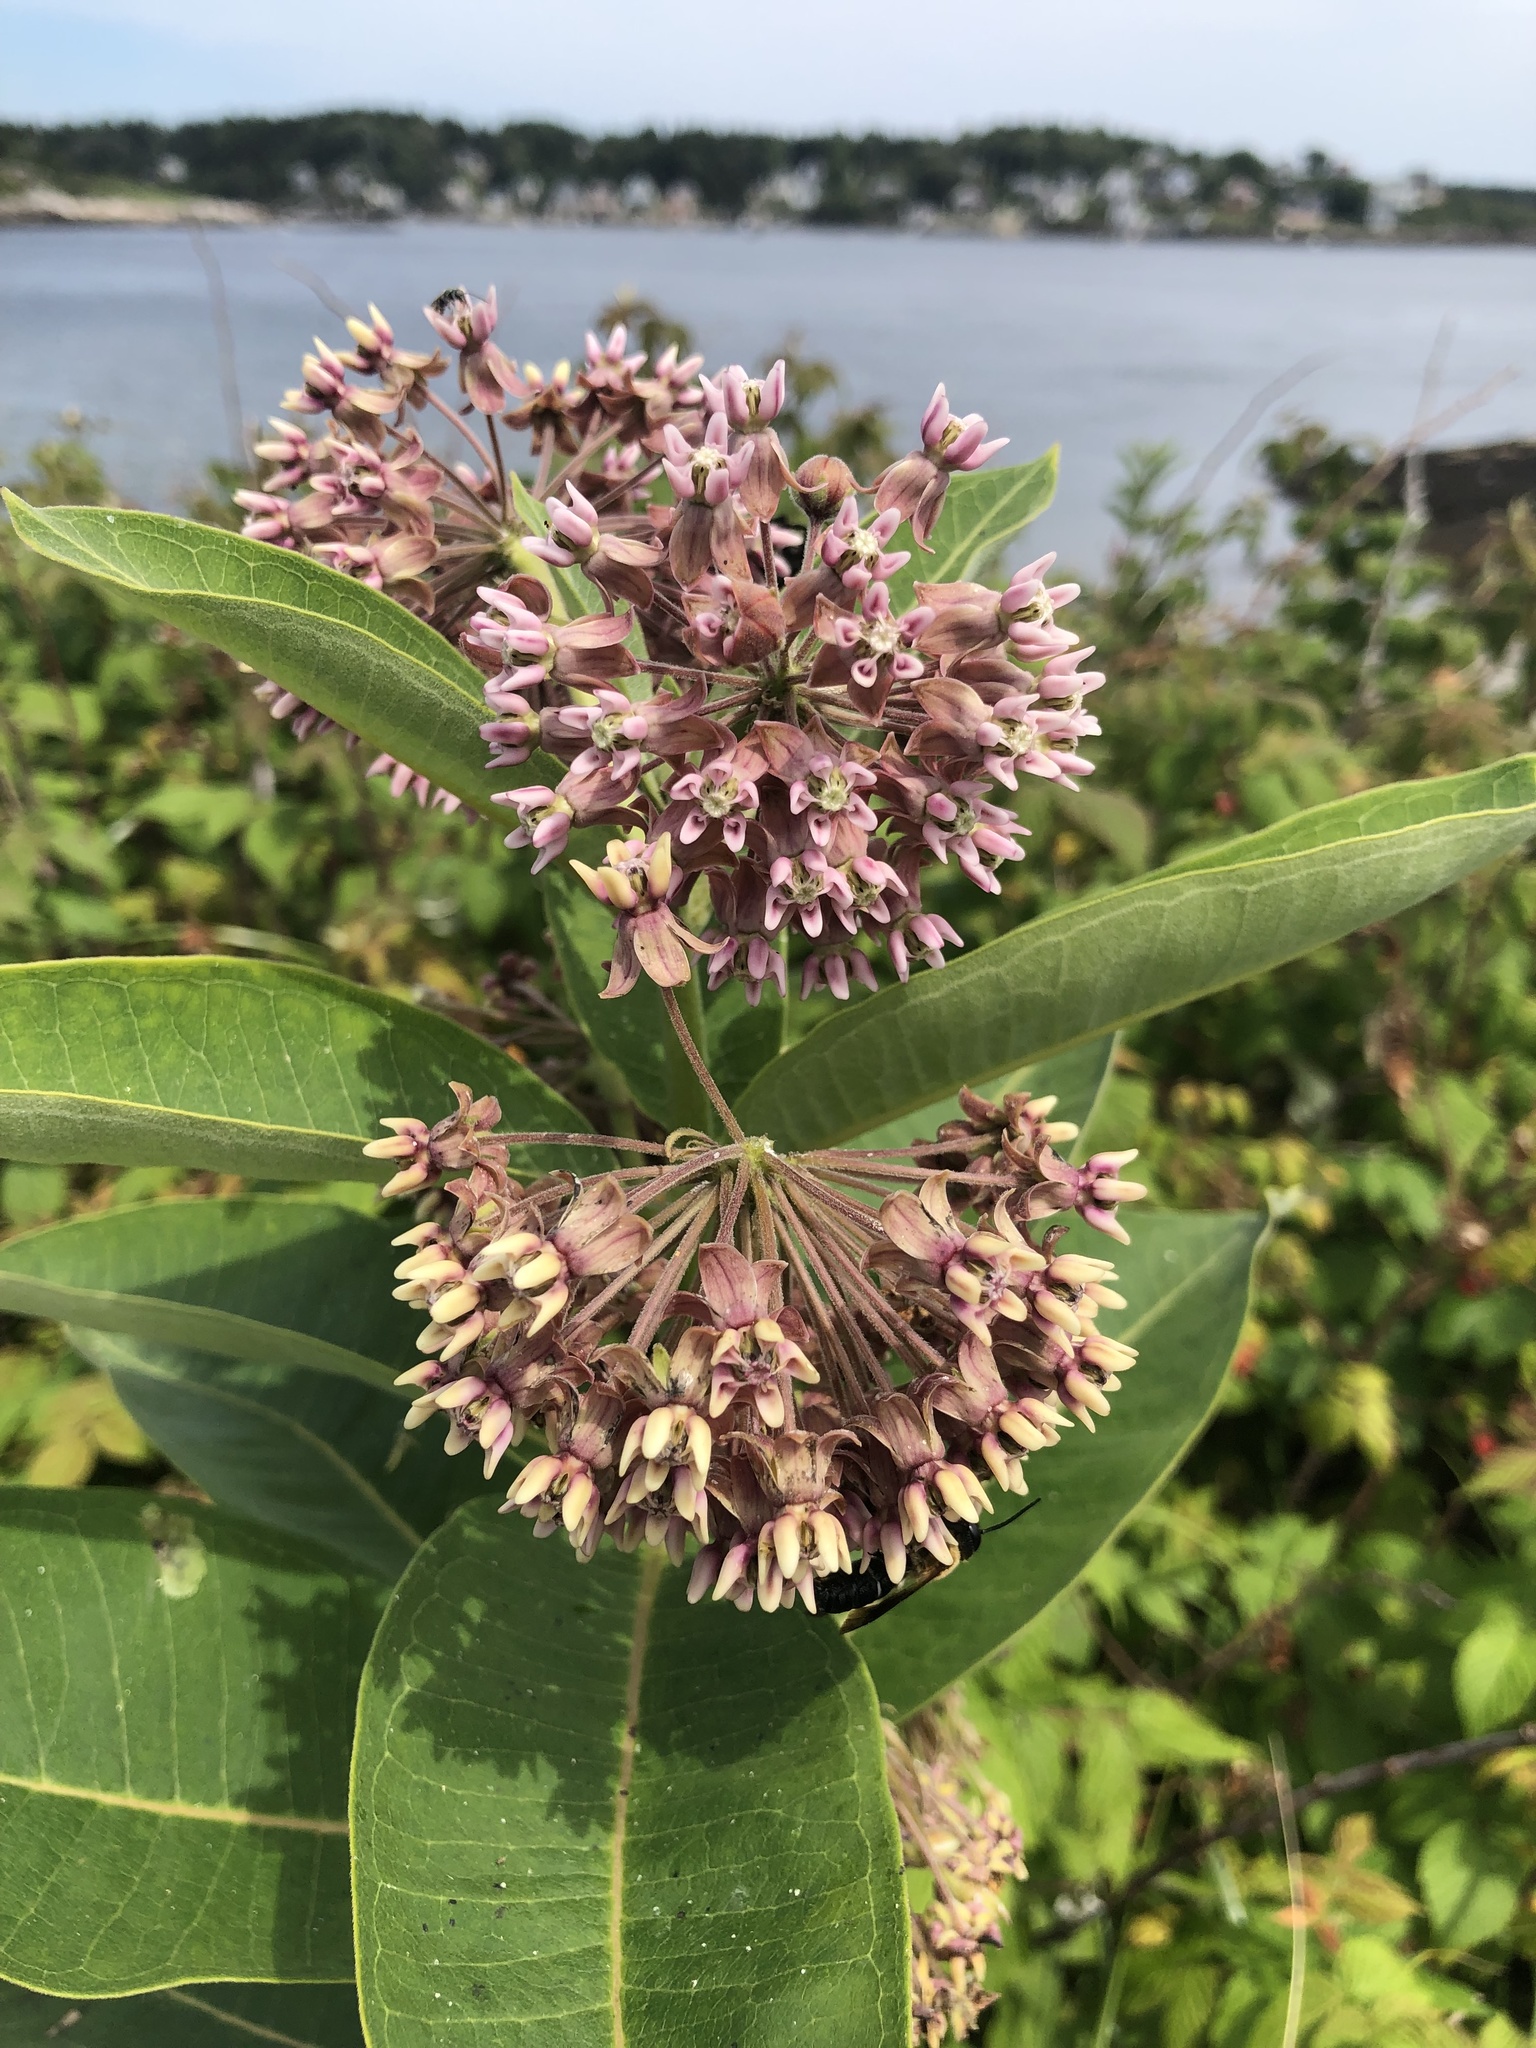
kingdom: Plantae
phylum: Tracheophyta
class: Magnoliopsida
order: Gentianales
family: Apocynaceae
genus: Asclepias
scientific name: Asclepias syriaca
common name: Common milkweed
